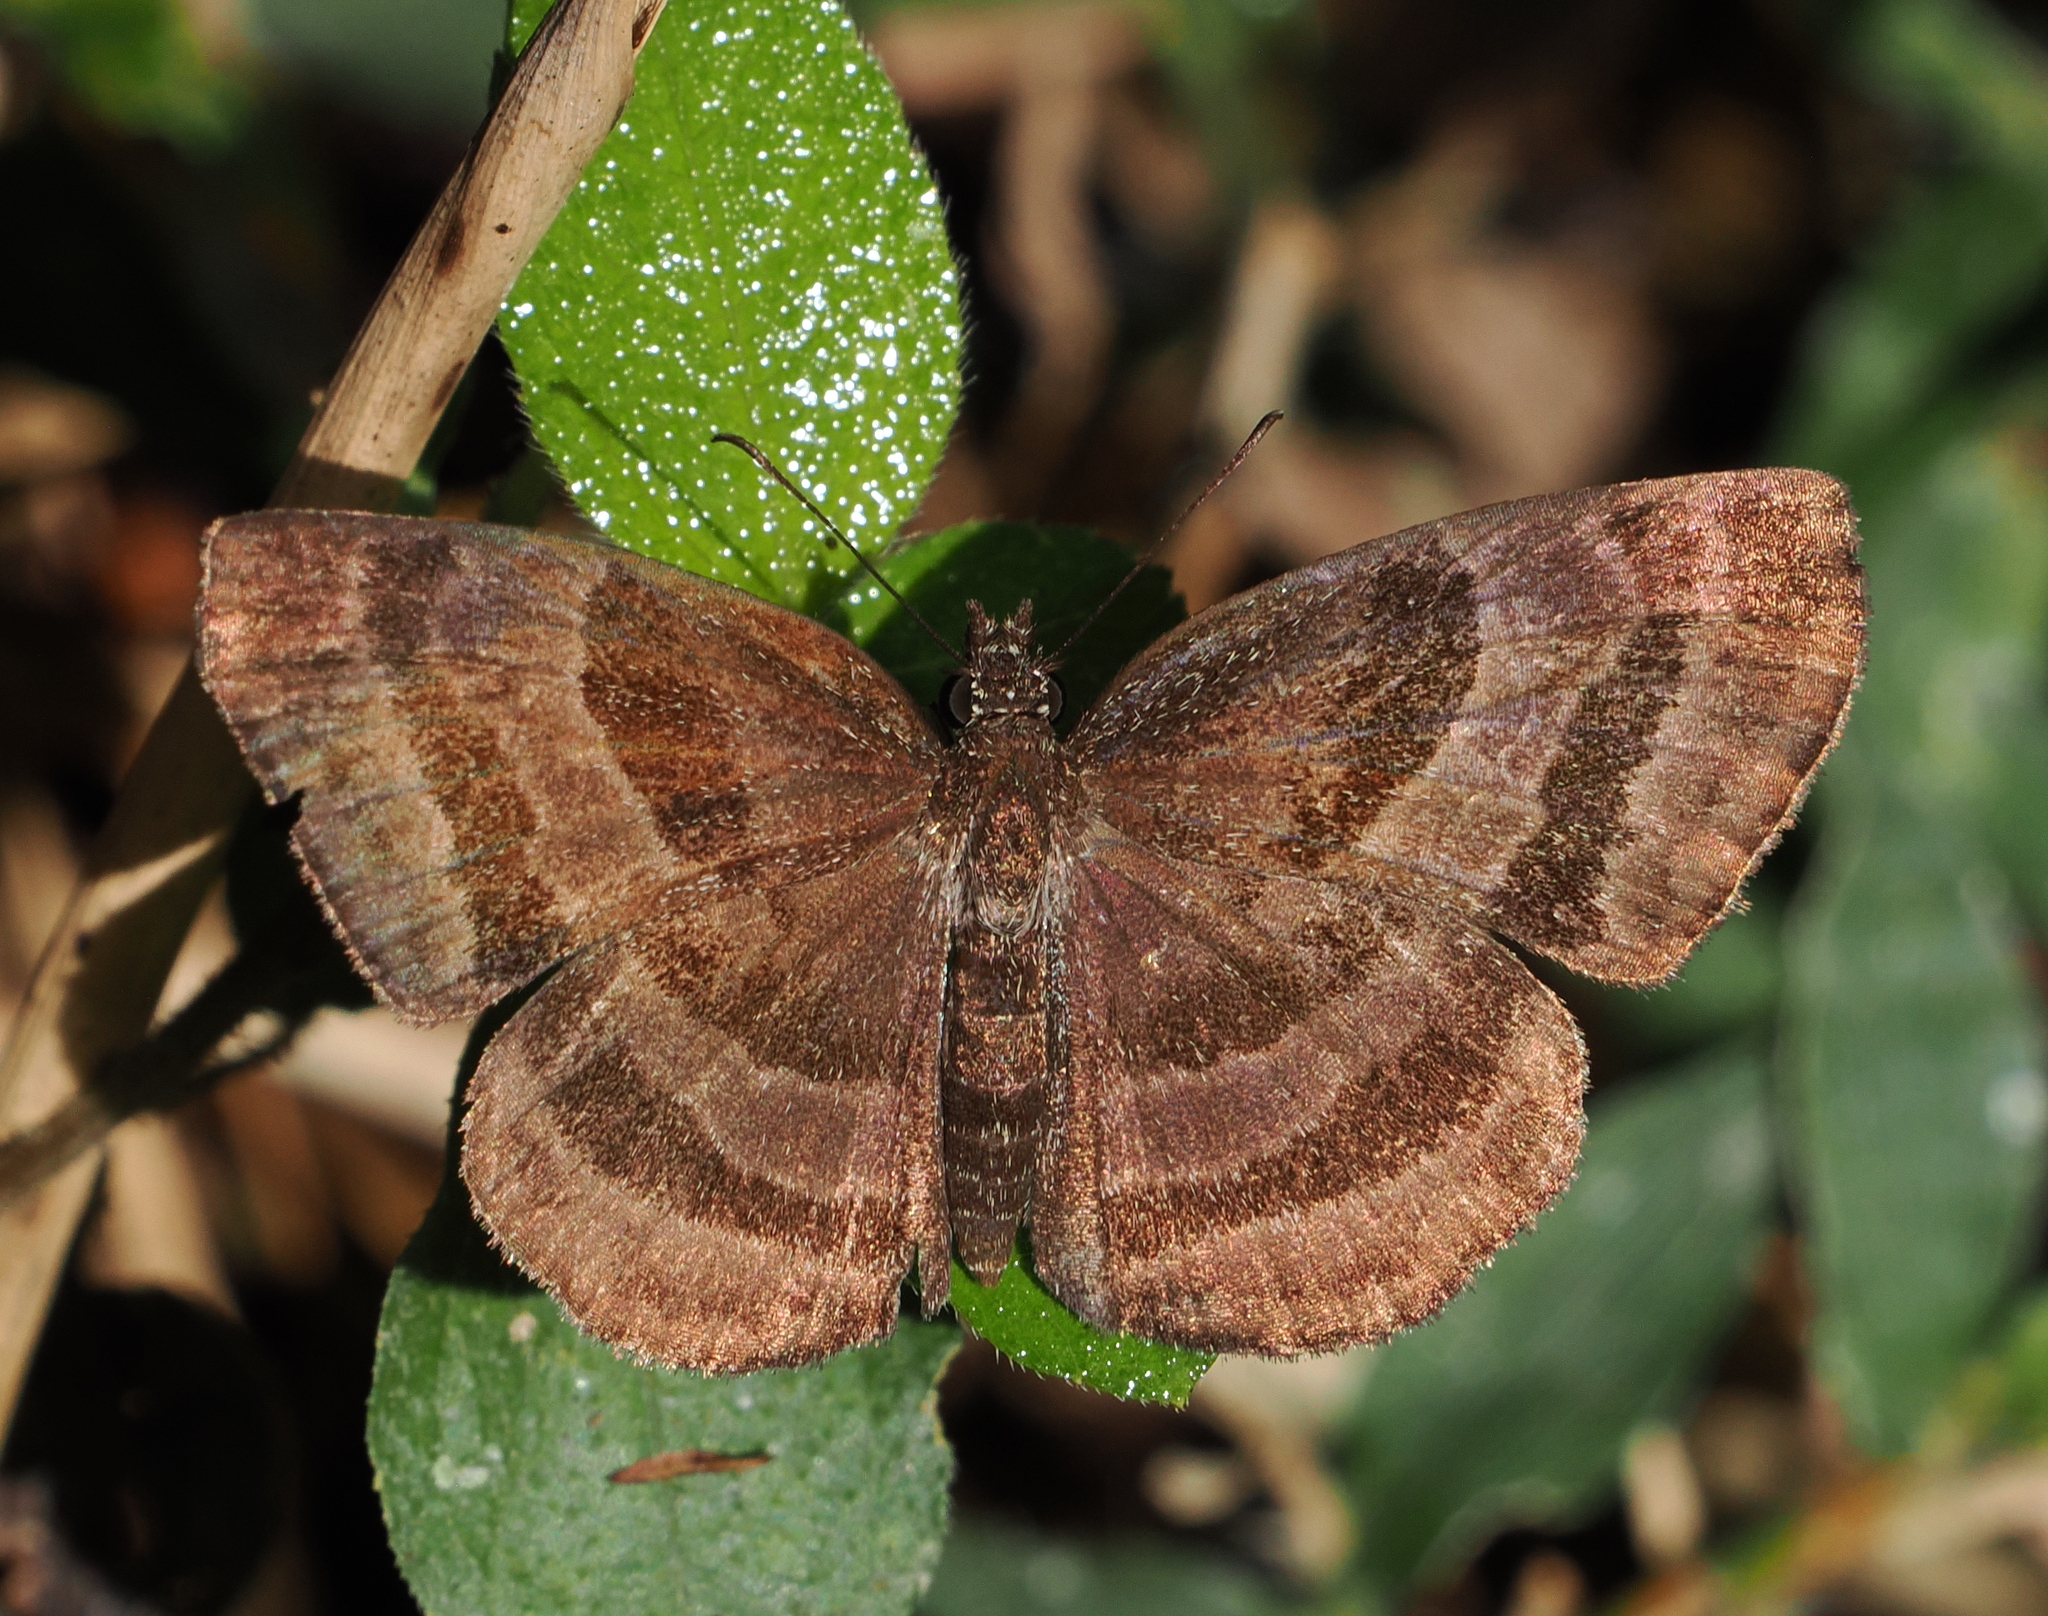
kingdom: Animalia
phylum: Arthropoda
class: Insecta
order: Lepidoptera
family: Hesperiidae
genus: Trina
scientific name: Trina geometrina
